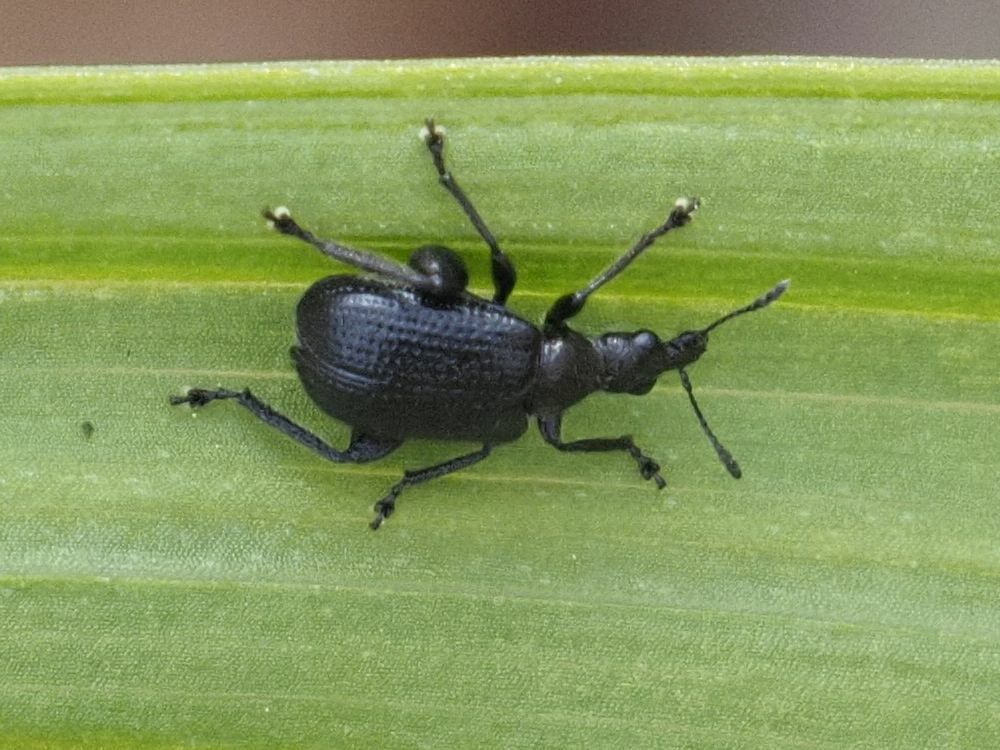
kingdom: Animalia
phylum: Arthropoda
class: Insecta
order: Coleoptera
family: Attelabidae
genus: Deporaus
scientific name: Deporaus betulae
